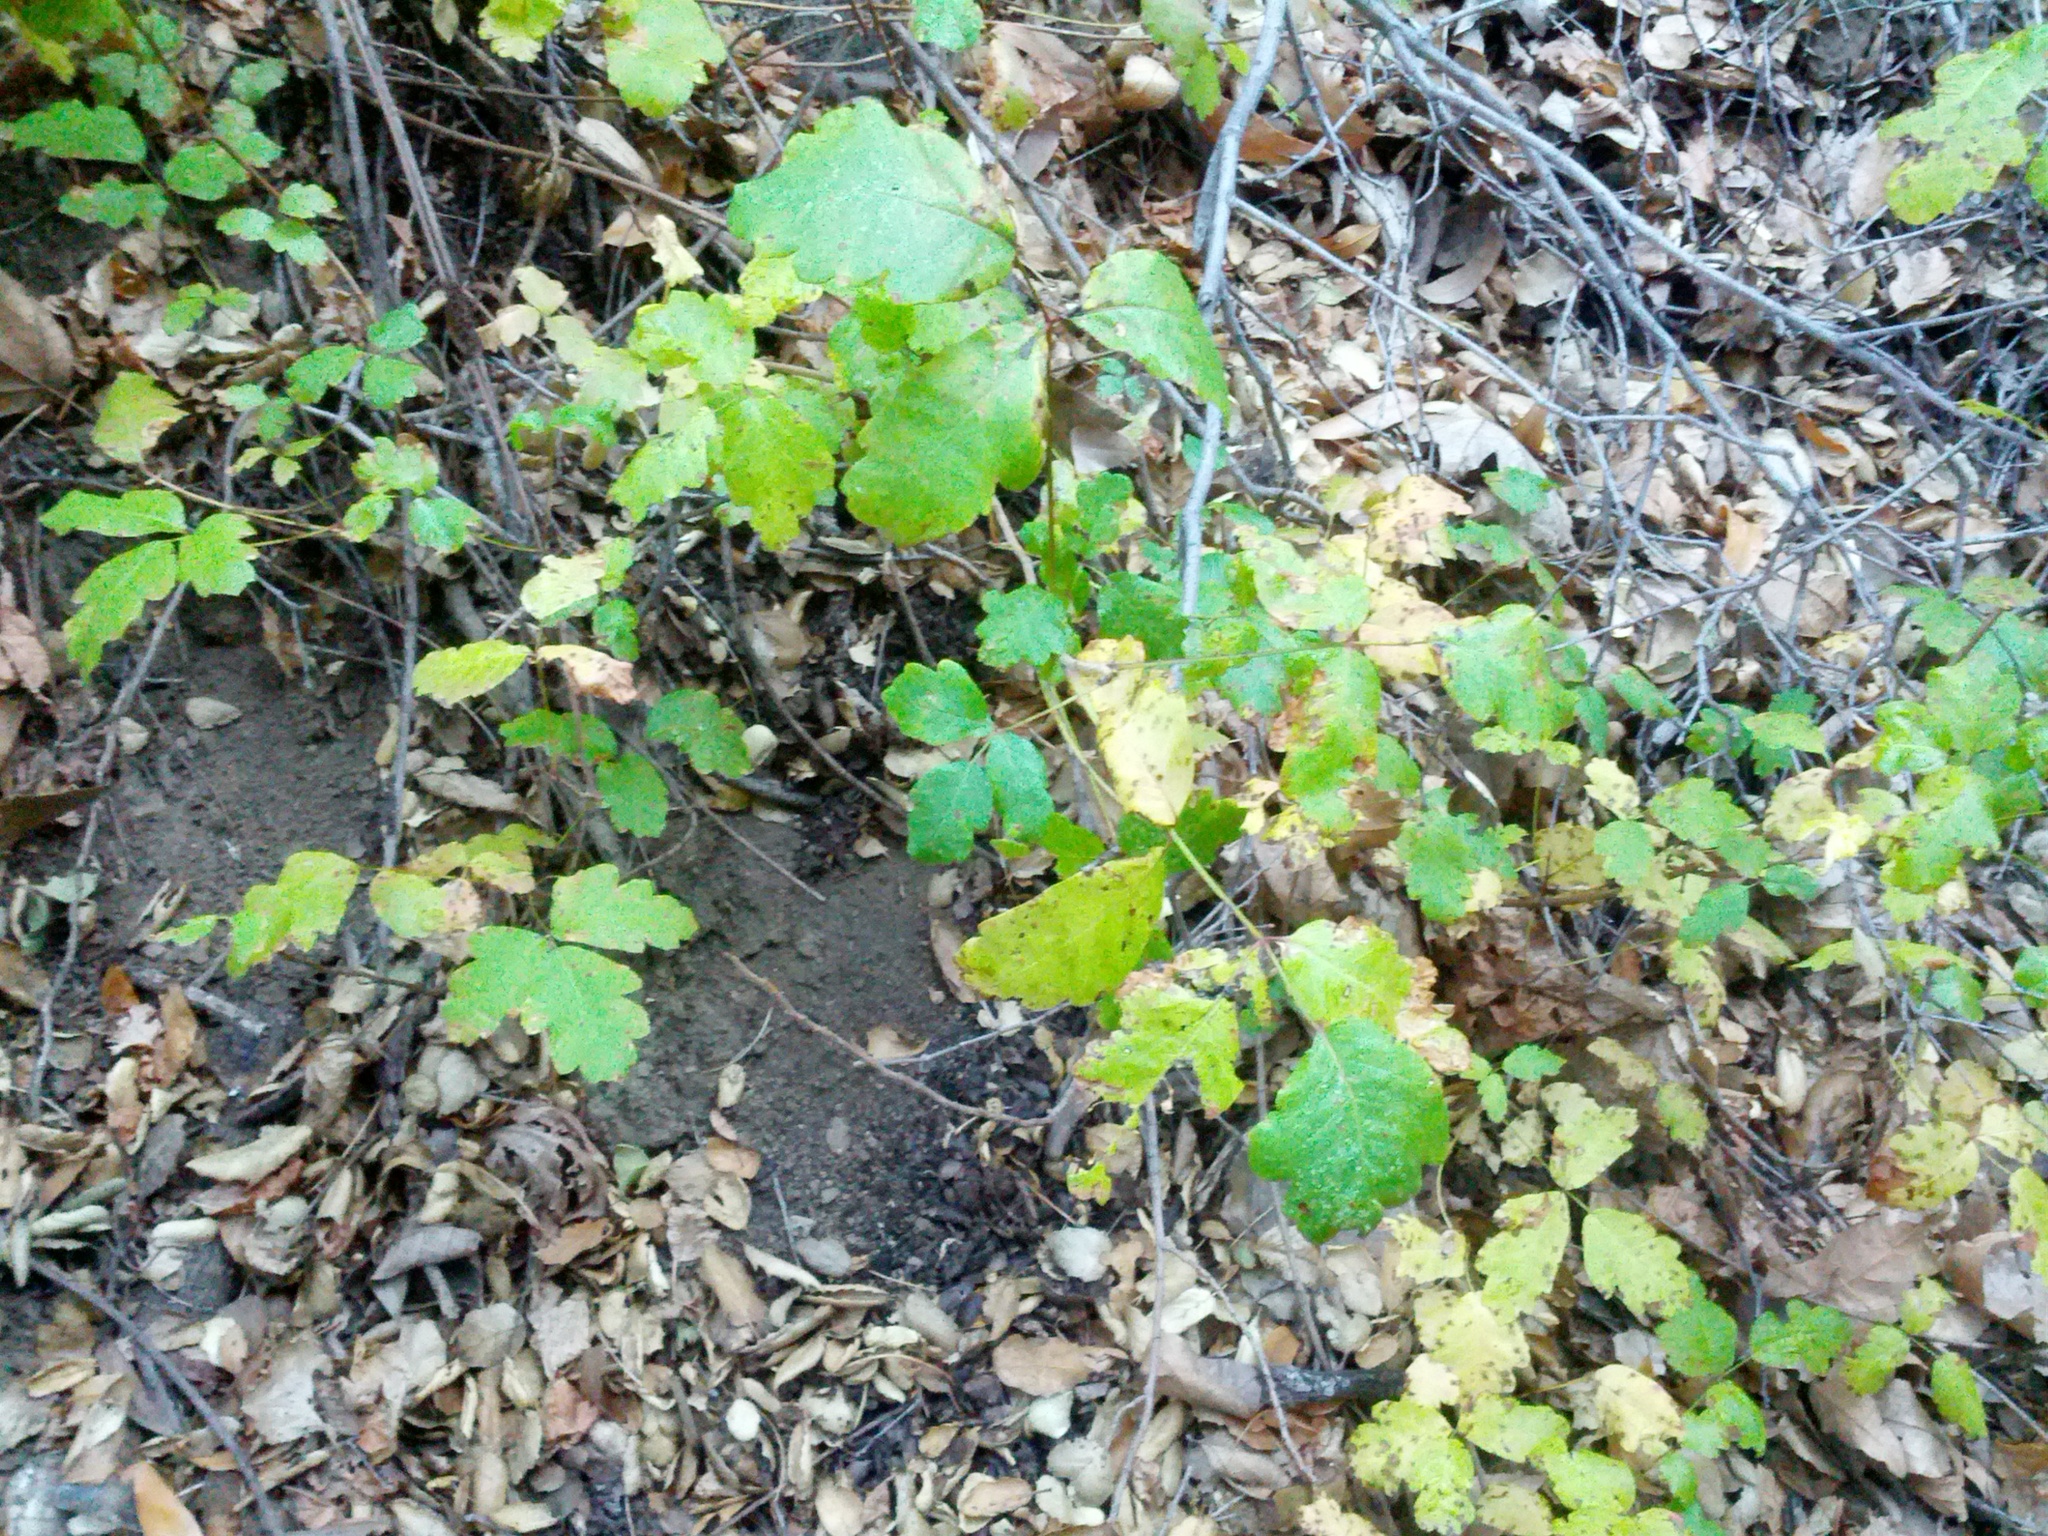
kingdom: Plantae
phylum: Tracheophyta
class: Magnoliopsida
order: Sapindales
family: Anacardiaceae
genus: Toxicodendron
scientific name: Toxicodendron diversilobum
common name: Pacific poison-oak
